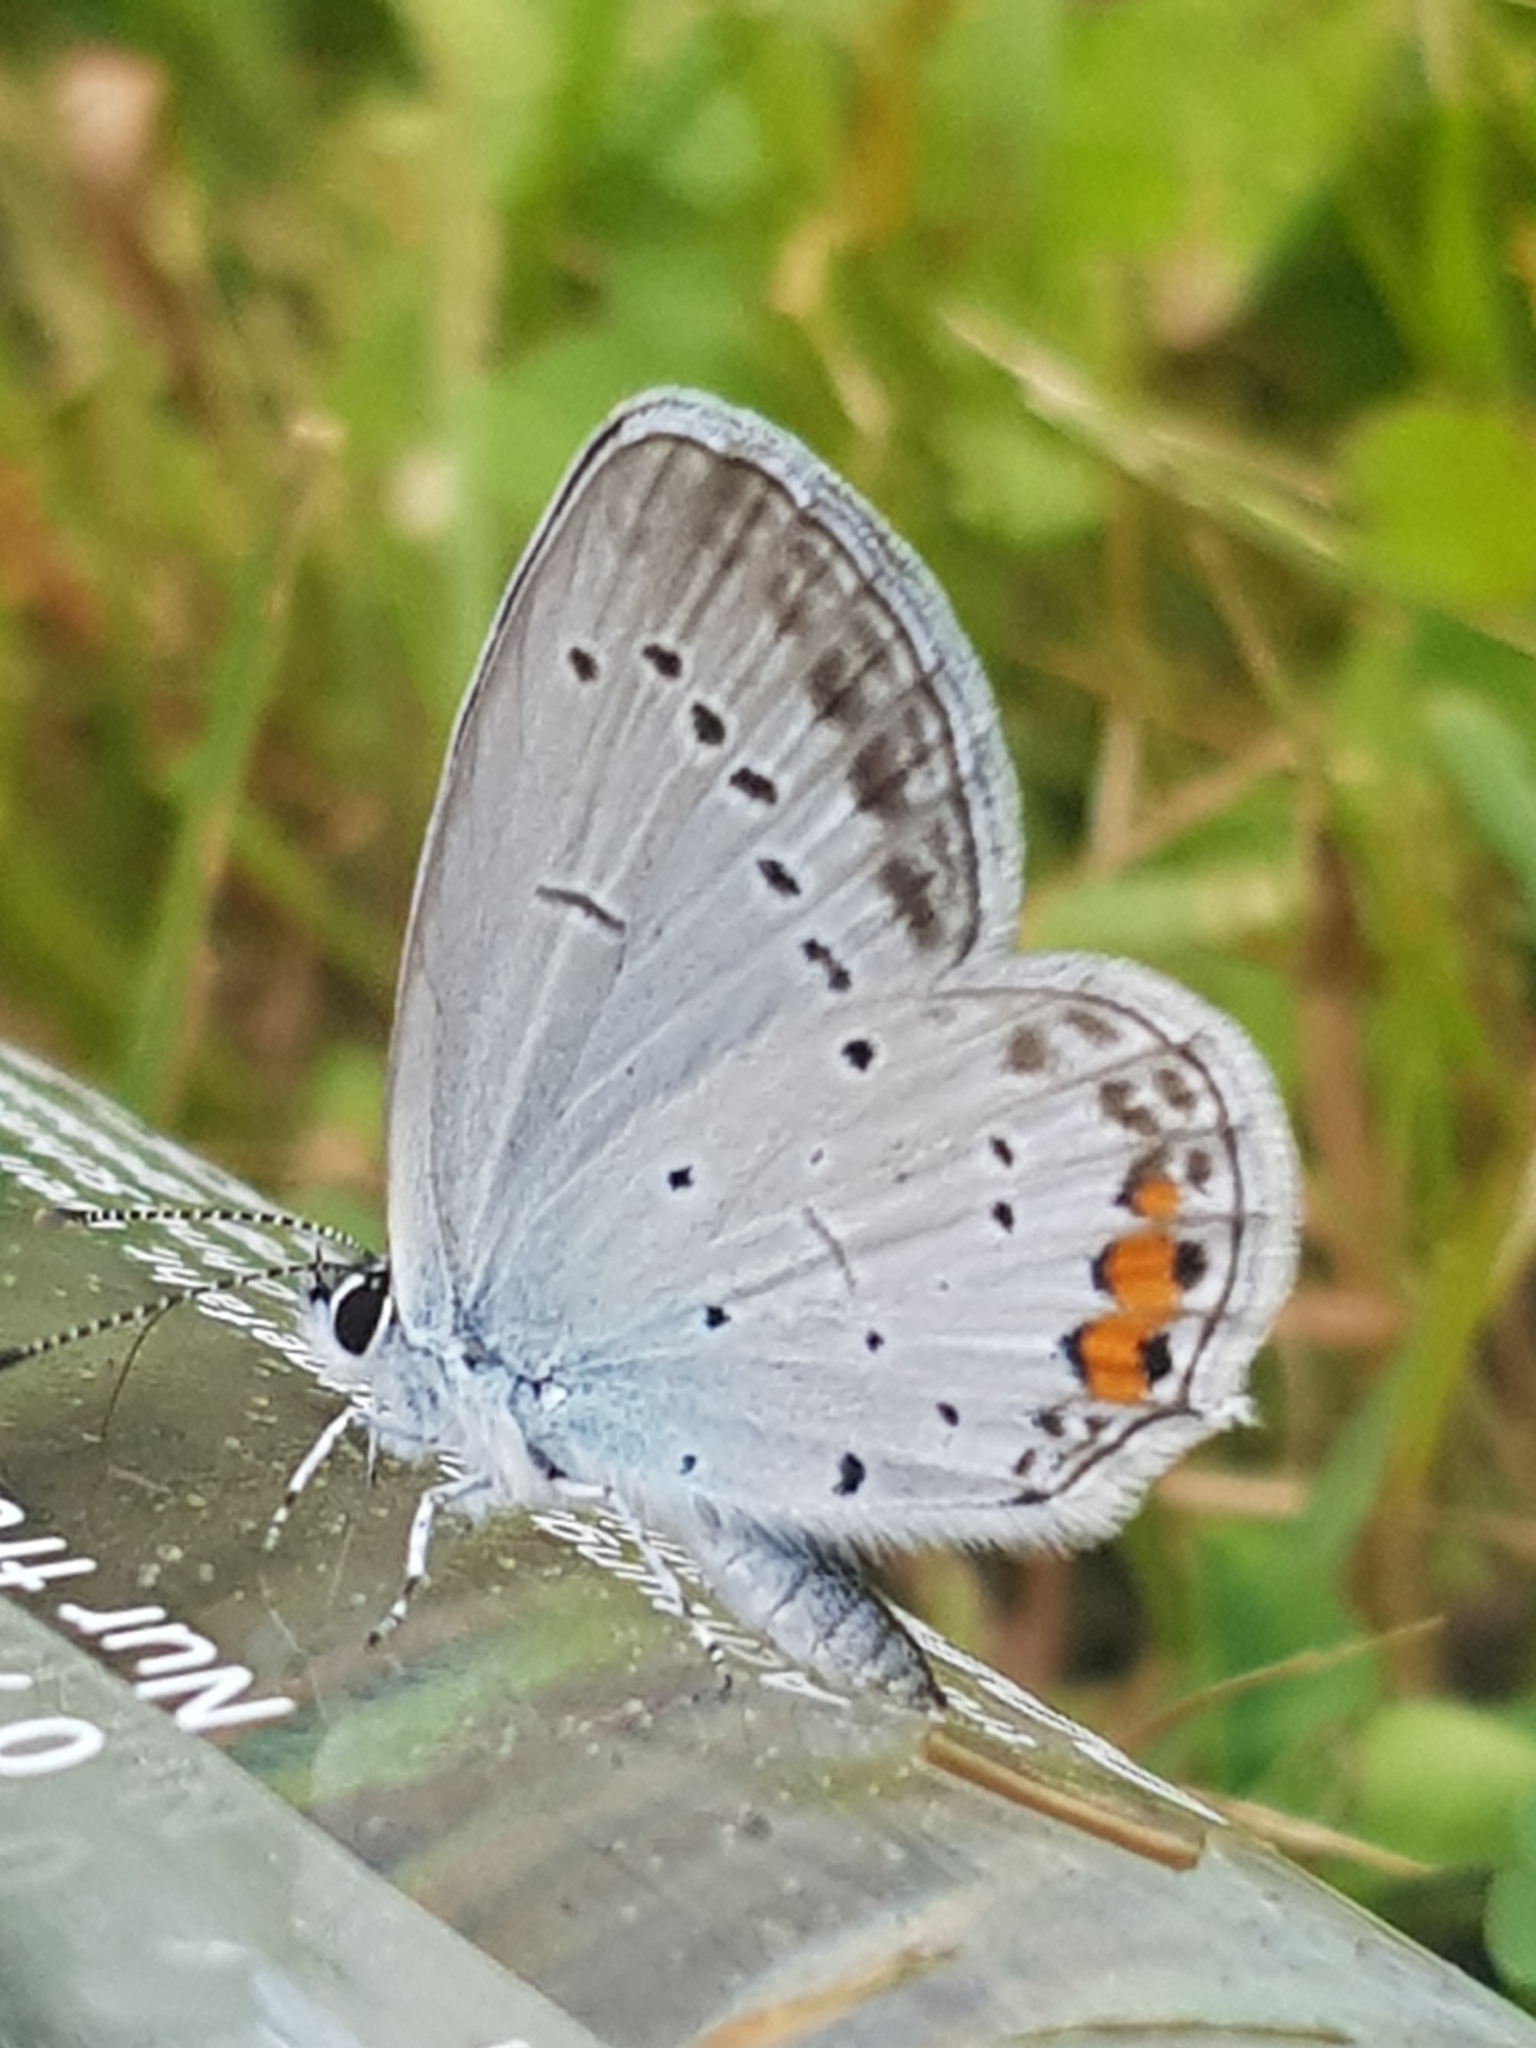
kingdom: Animalia
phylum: Arthropoda
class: Insecta
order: Lepidoptera
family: Lycaenidae
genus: Elkalyce
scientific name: Elkalyce argiades
